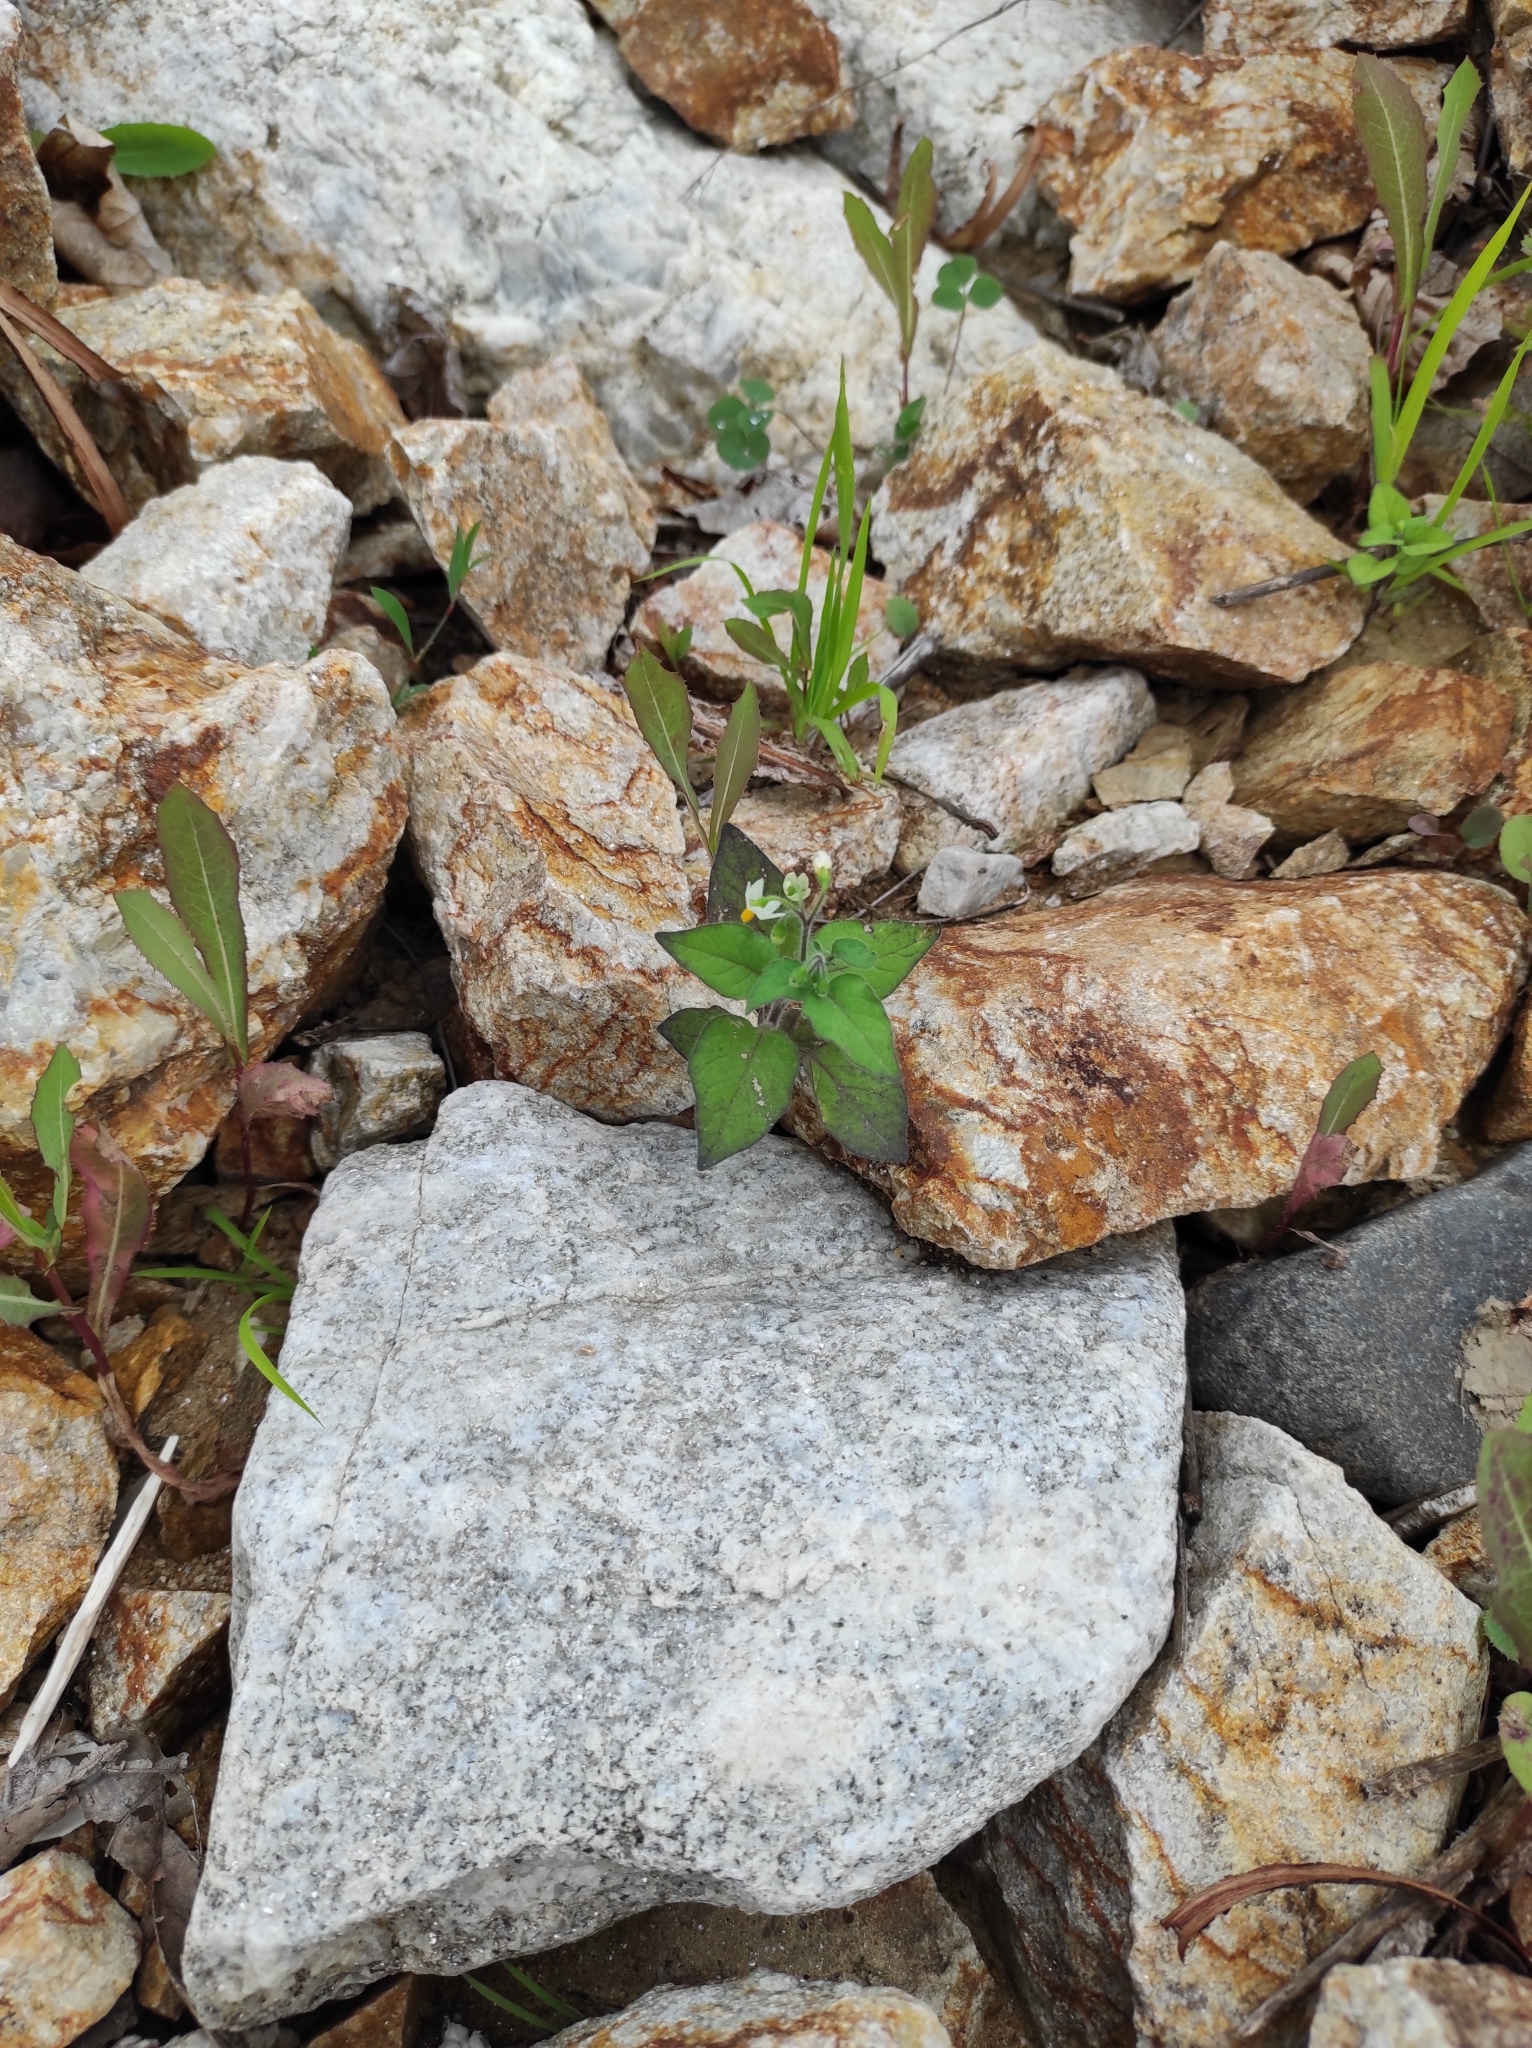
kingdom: Plantae
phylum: Tracheophyta
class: Magnoliopsida
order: Solanales
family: Solanaceae
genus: Solanum
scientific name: Solanum nigrum
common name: Black nightshade
